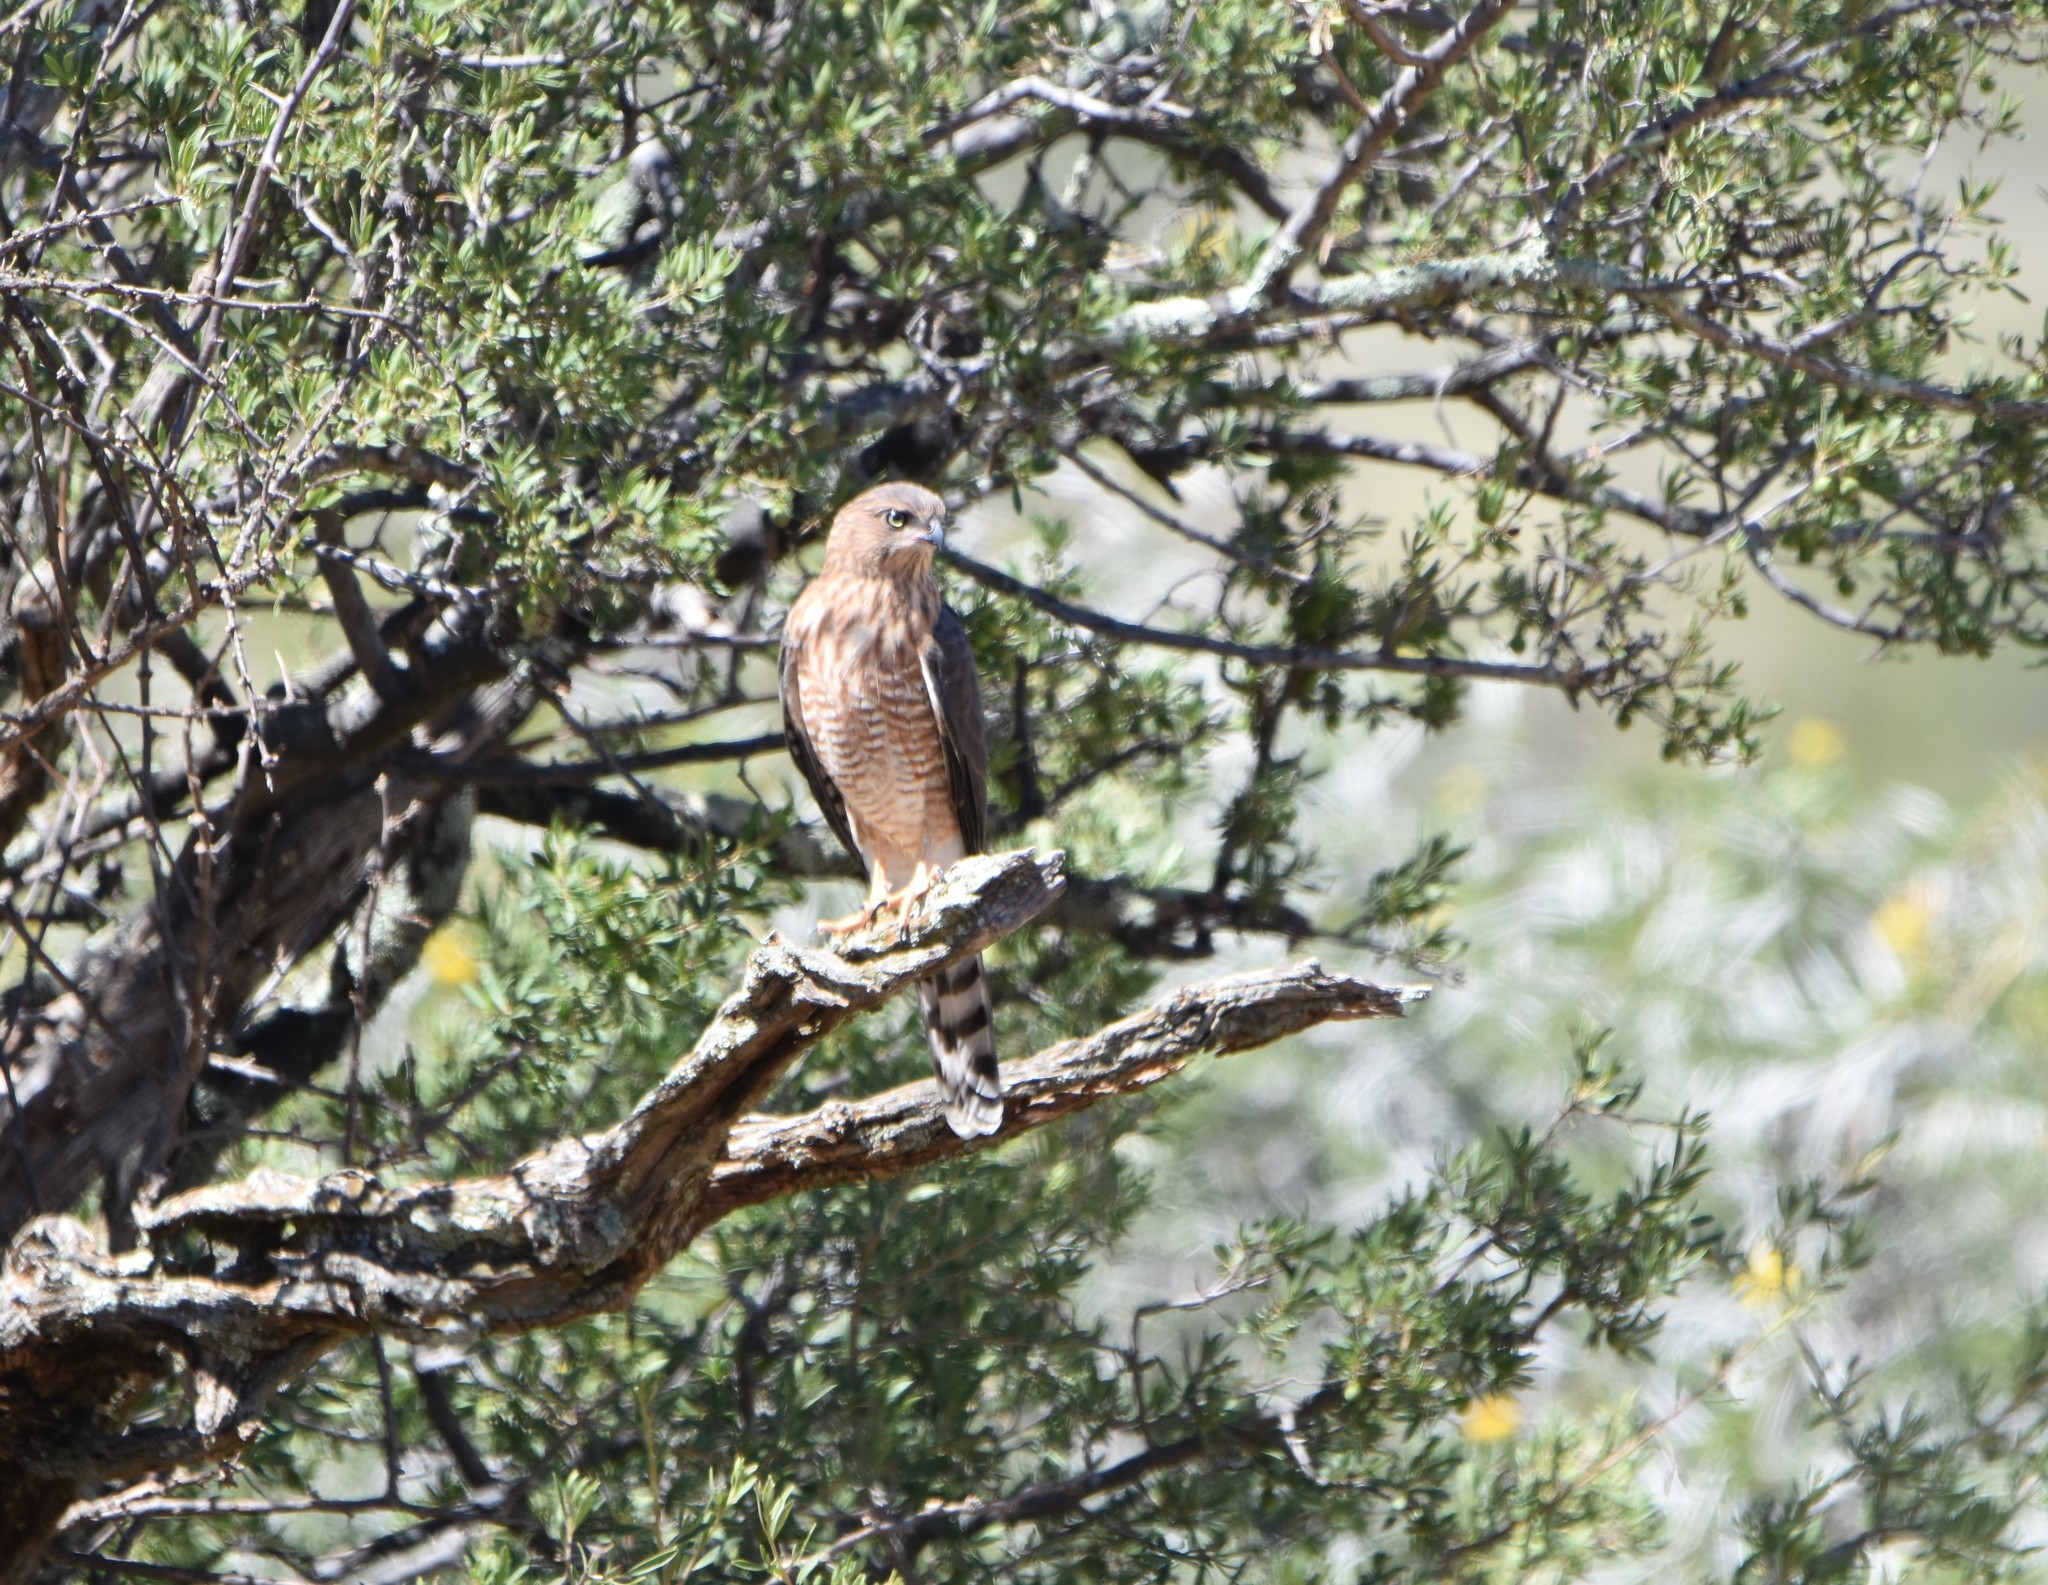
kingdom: Animalia
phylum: Chordata
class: Aves
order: Accipitriformes
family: Accipitridae
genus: Micronisus
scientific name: Micronisus gabar
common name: Gabar goshawk
